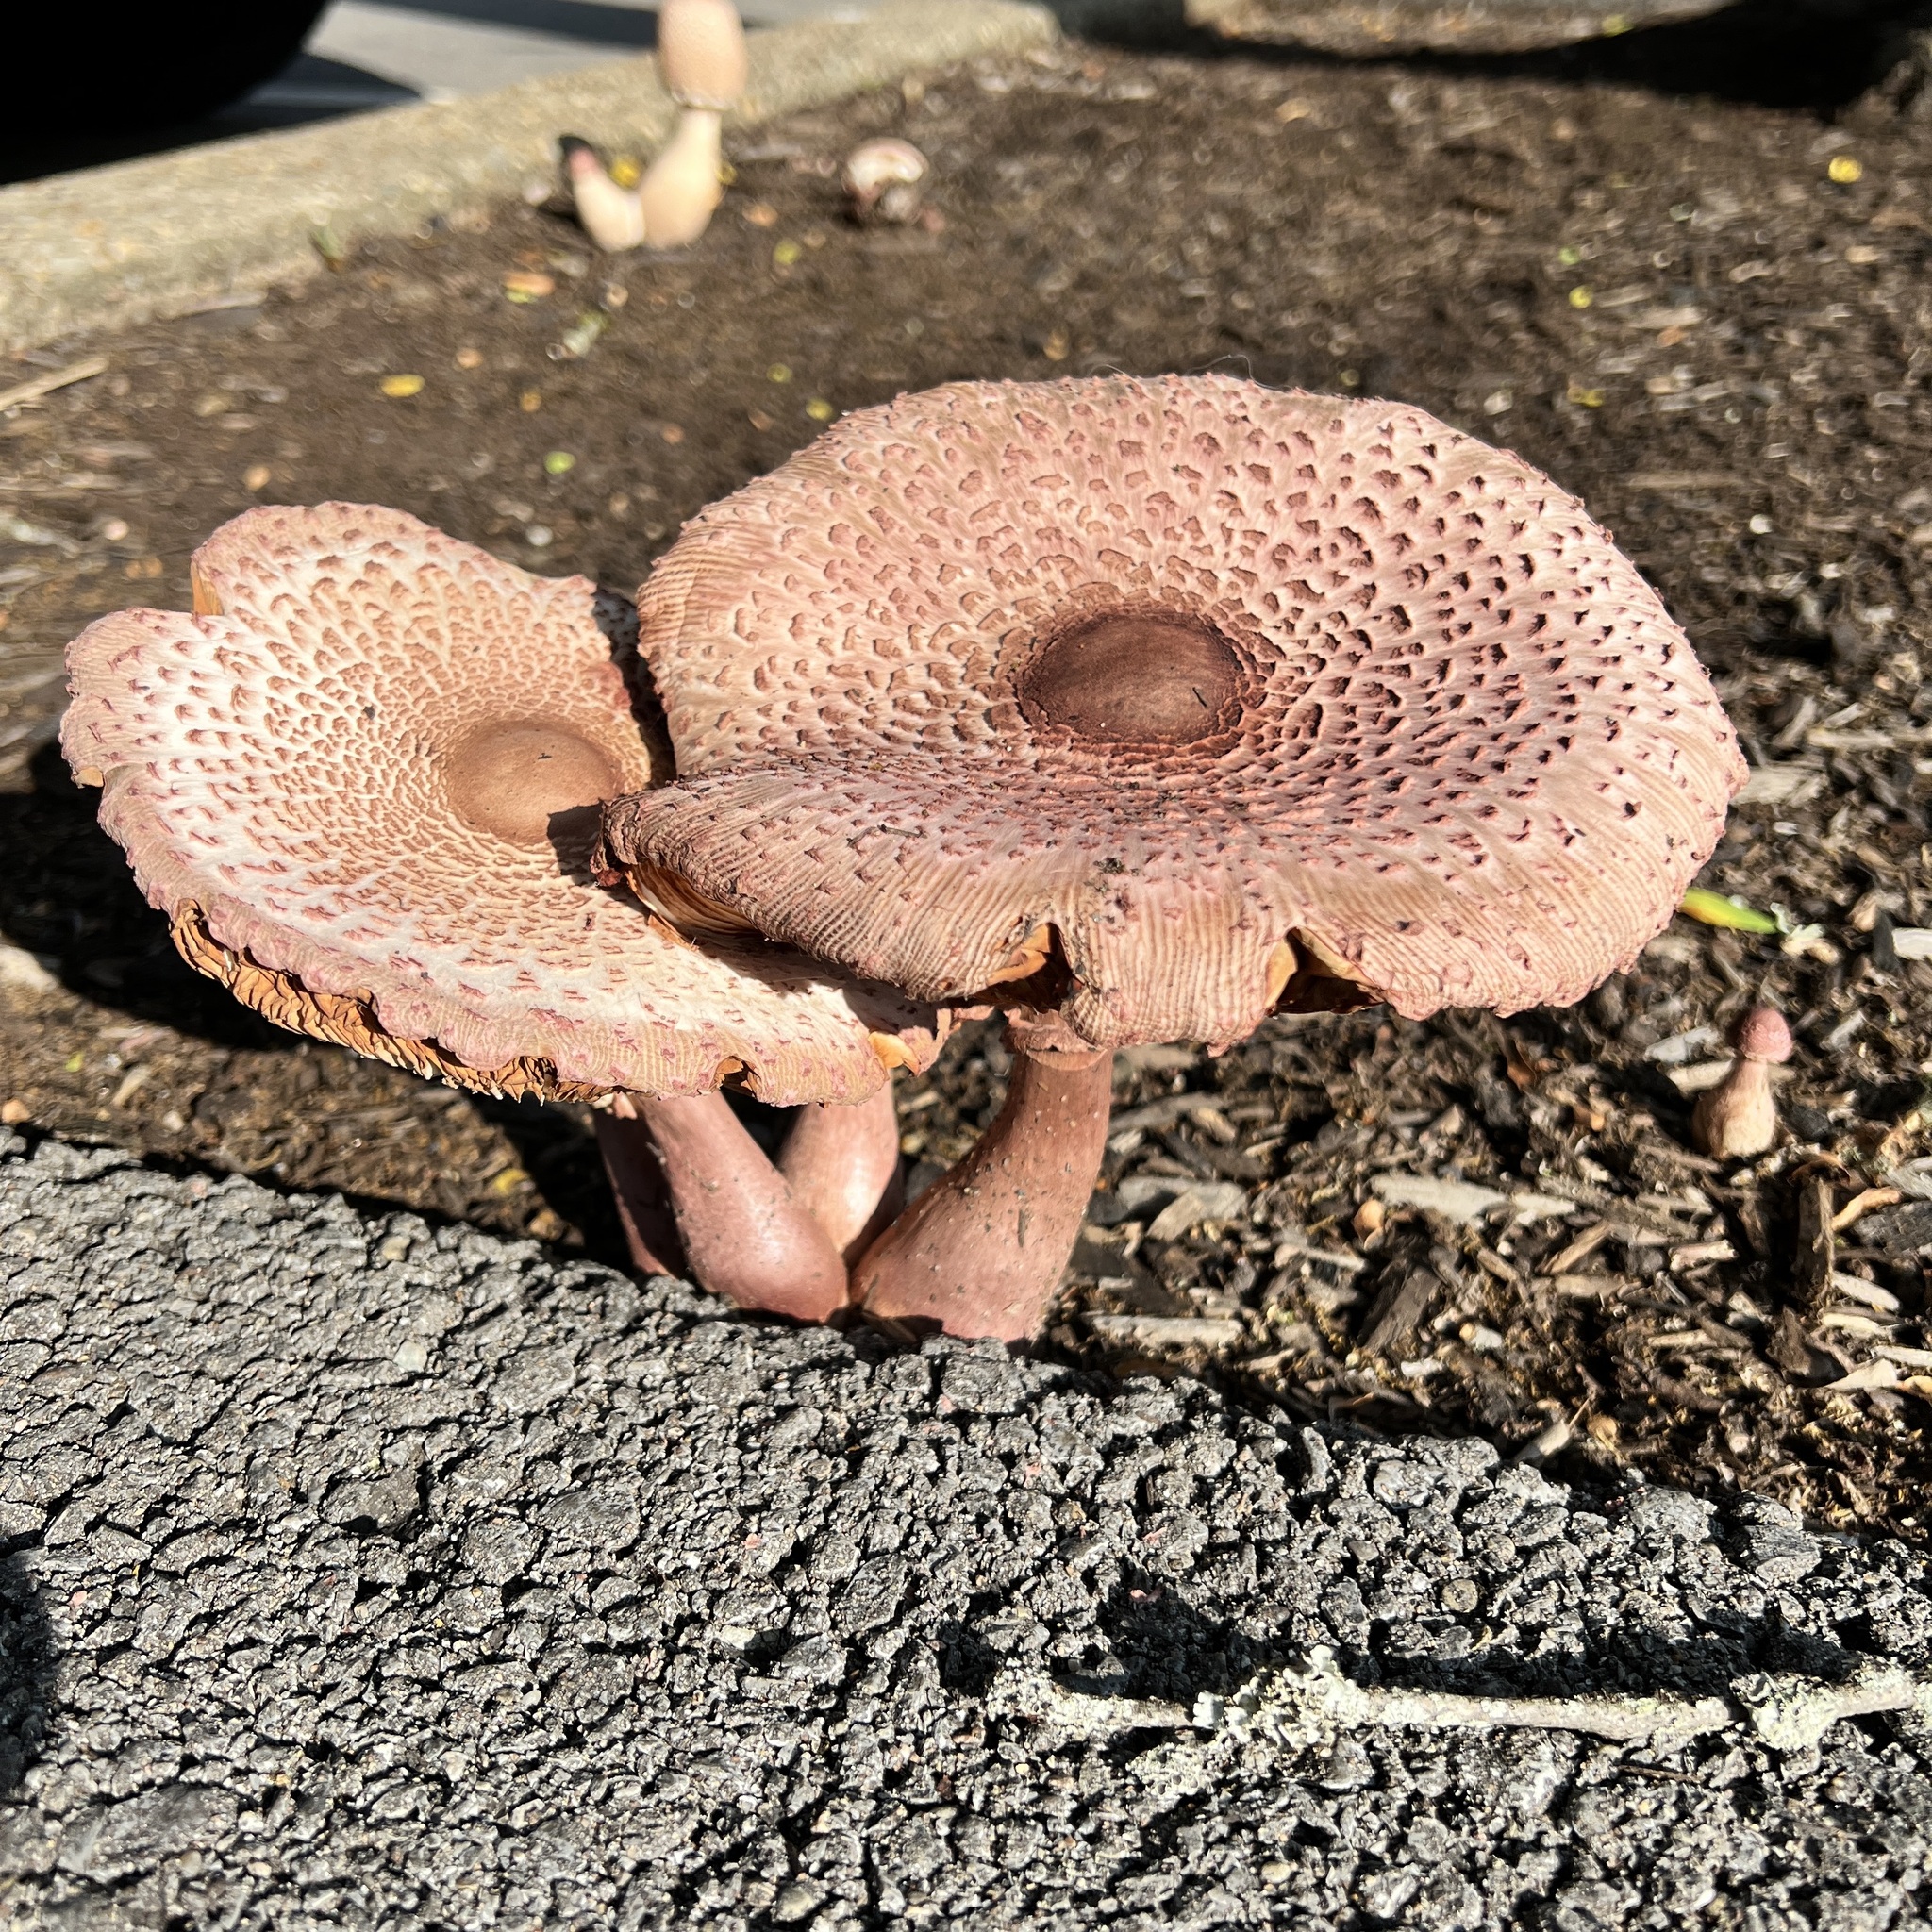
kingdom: Fungi
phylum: Basidiomycota
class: Agaricomycetes
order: Agaricales
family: Agaricaceae
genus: Leucoagaricus
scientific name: Leucoagaricus americanus
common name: Reddening lepiota
